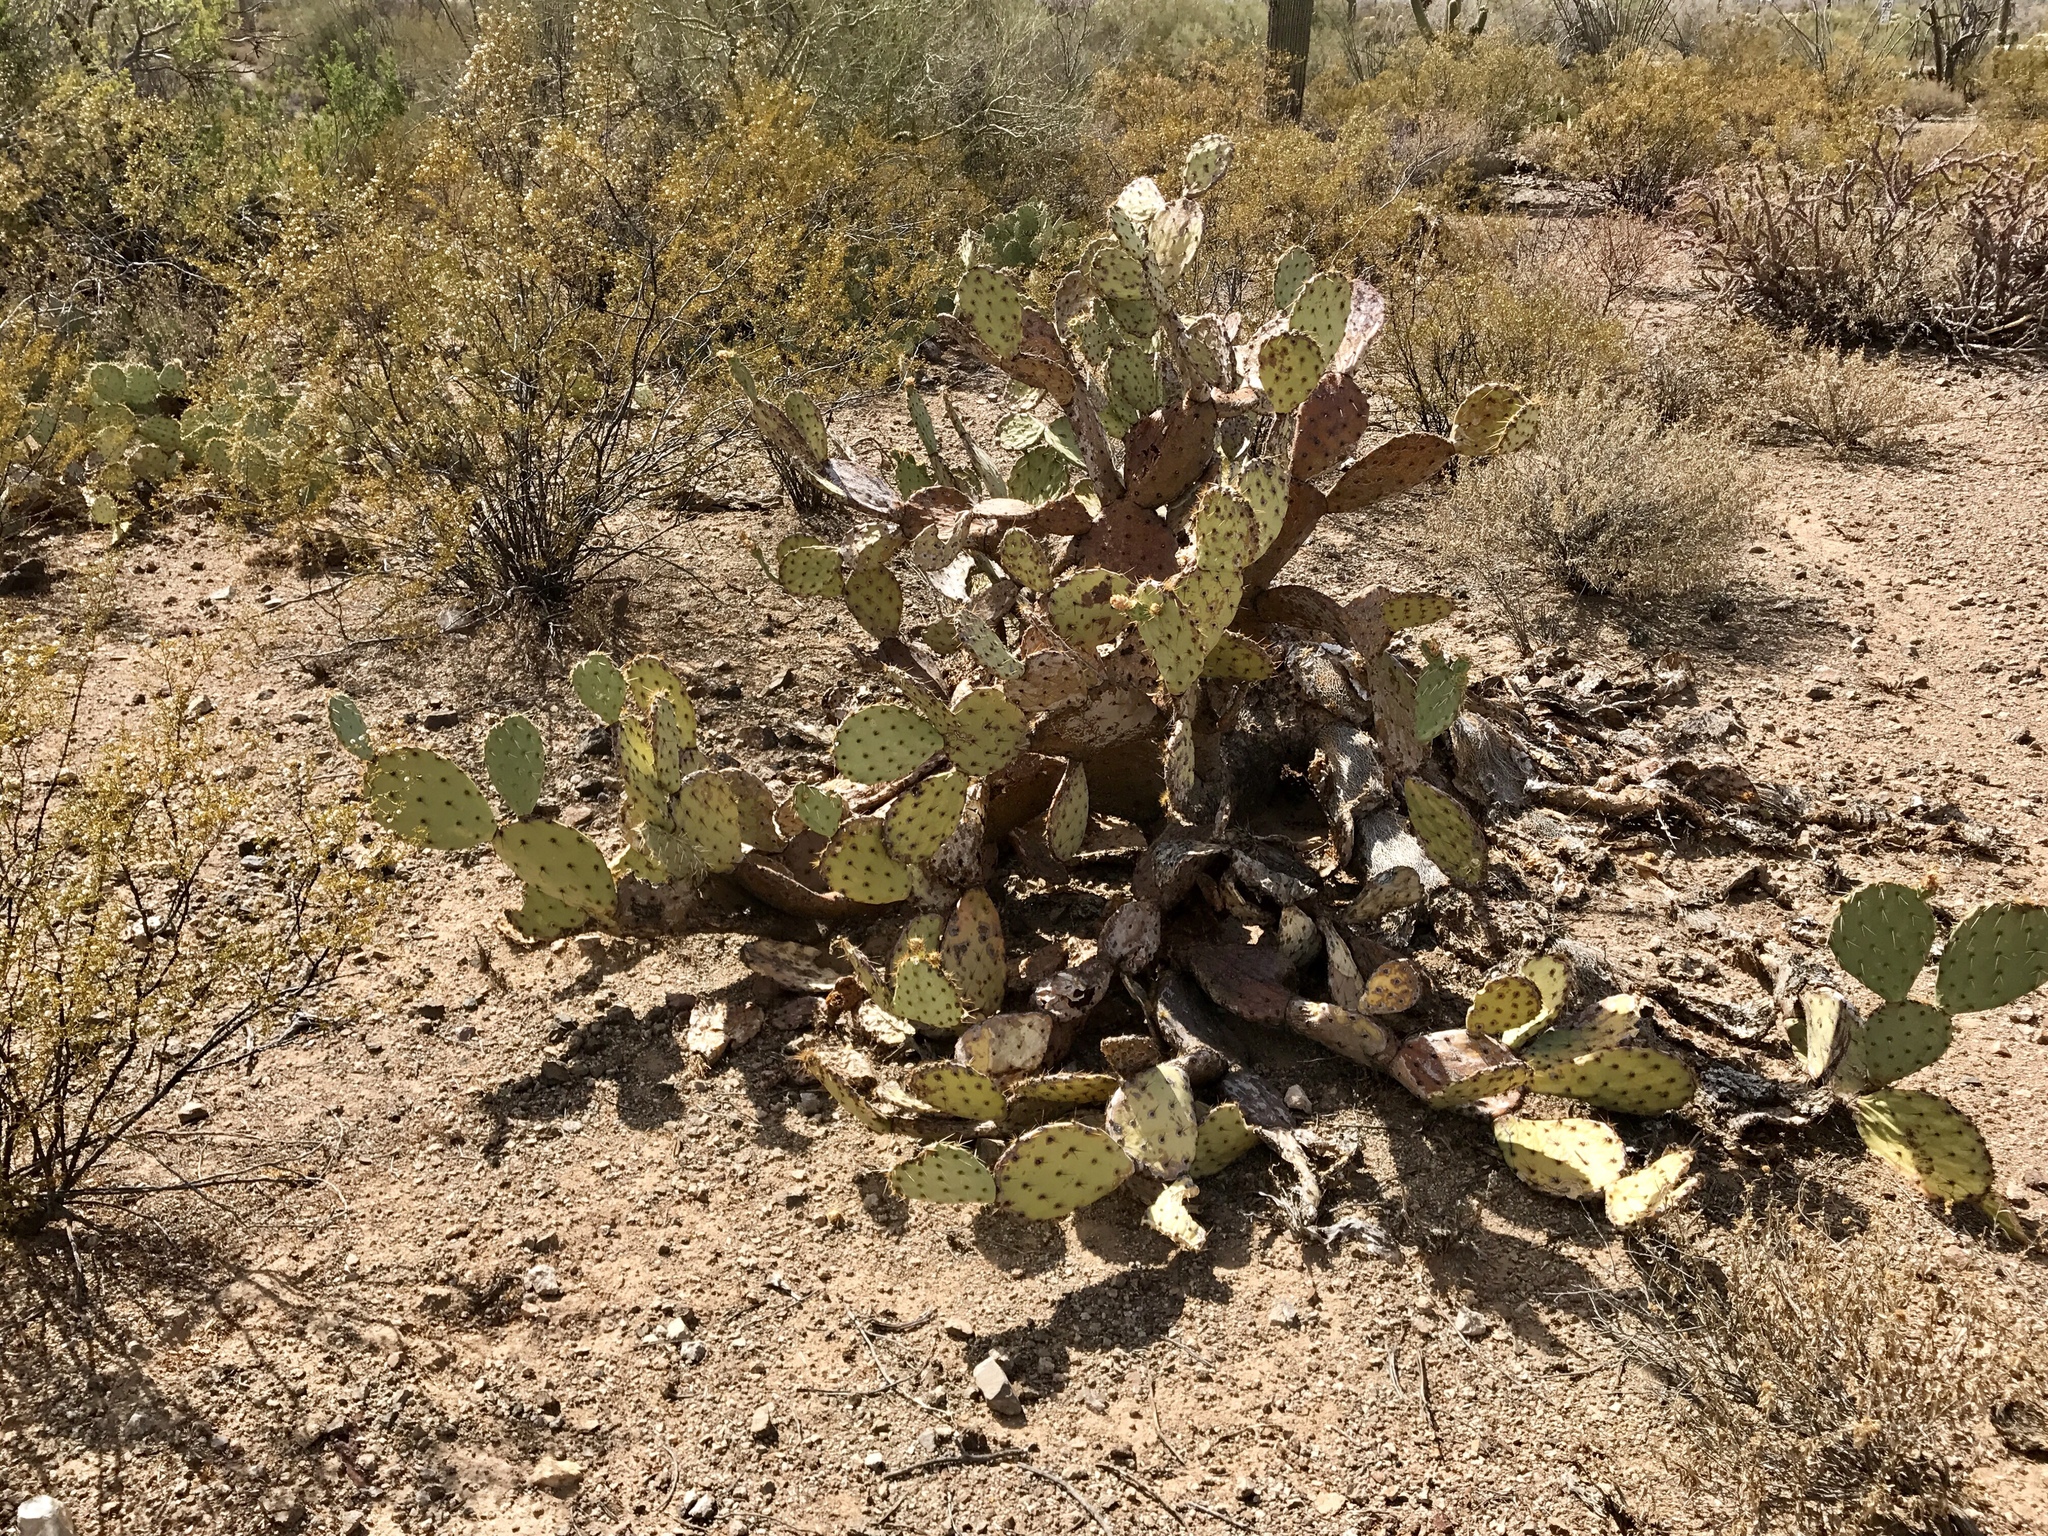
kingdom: Plantae
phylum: Tracheophyta
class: Magnoliopsida
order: Caryophyllales
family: Cactaceae
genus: Opuntia
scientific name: Opuntia engelmannii
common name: Cactus-apple
